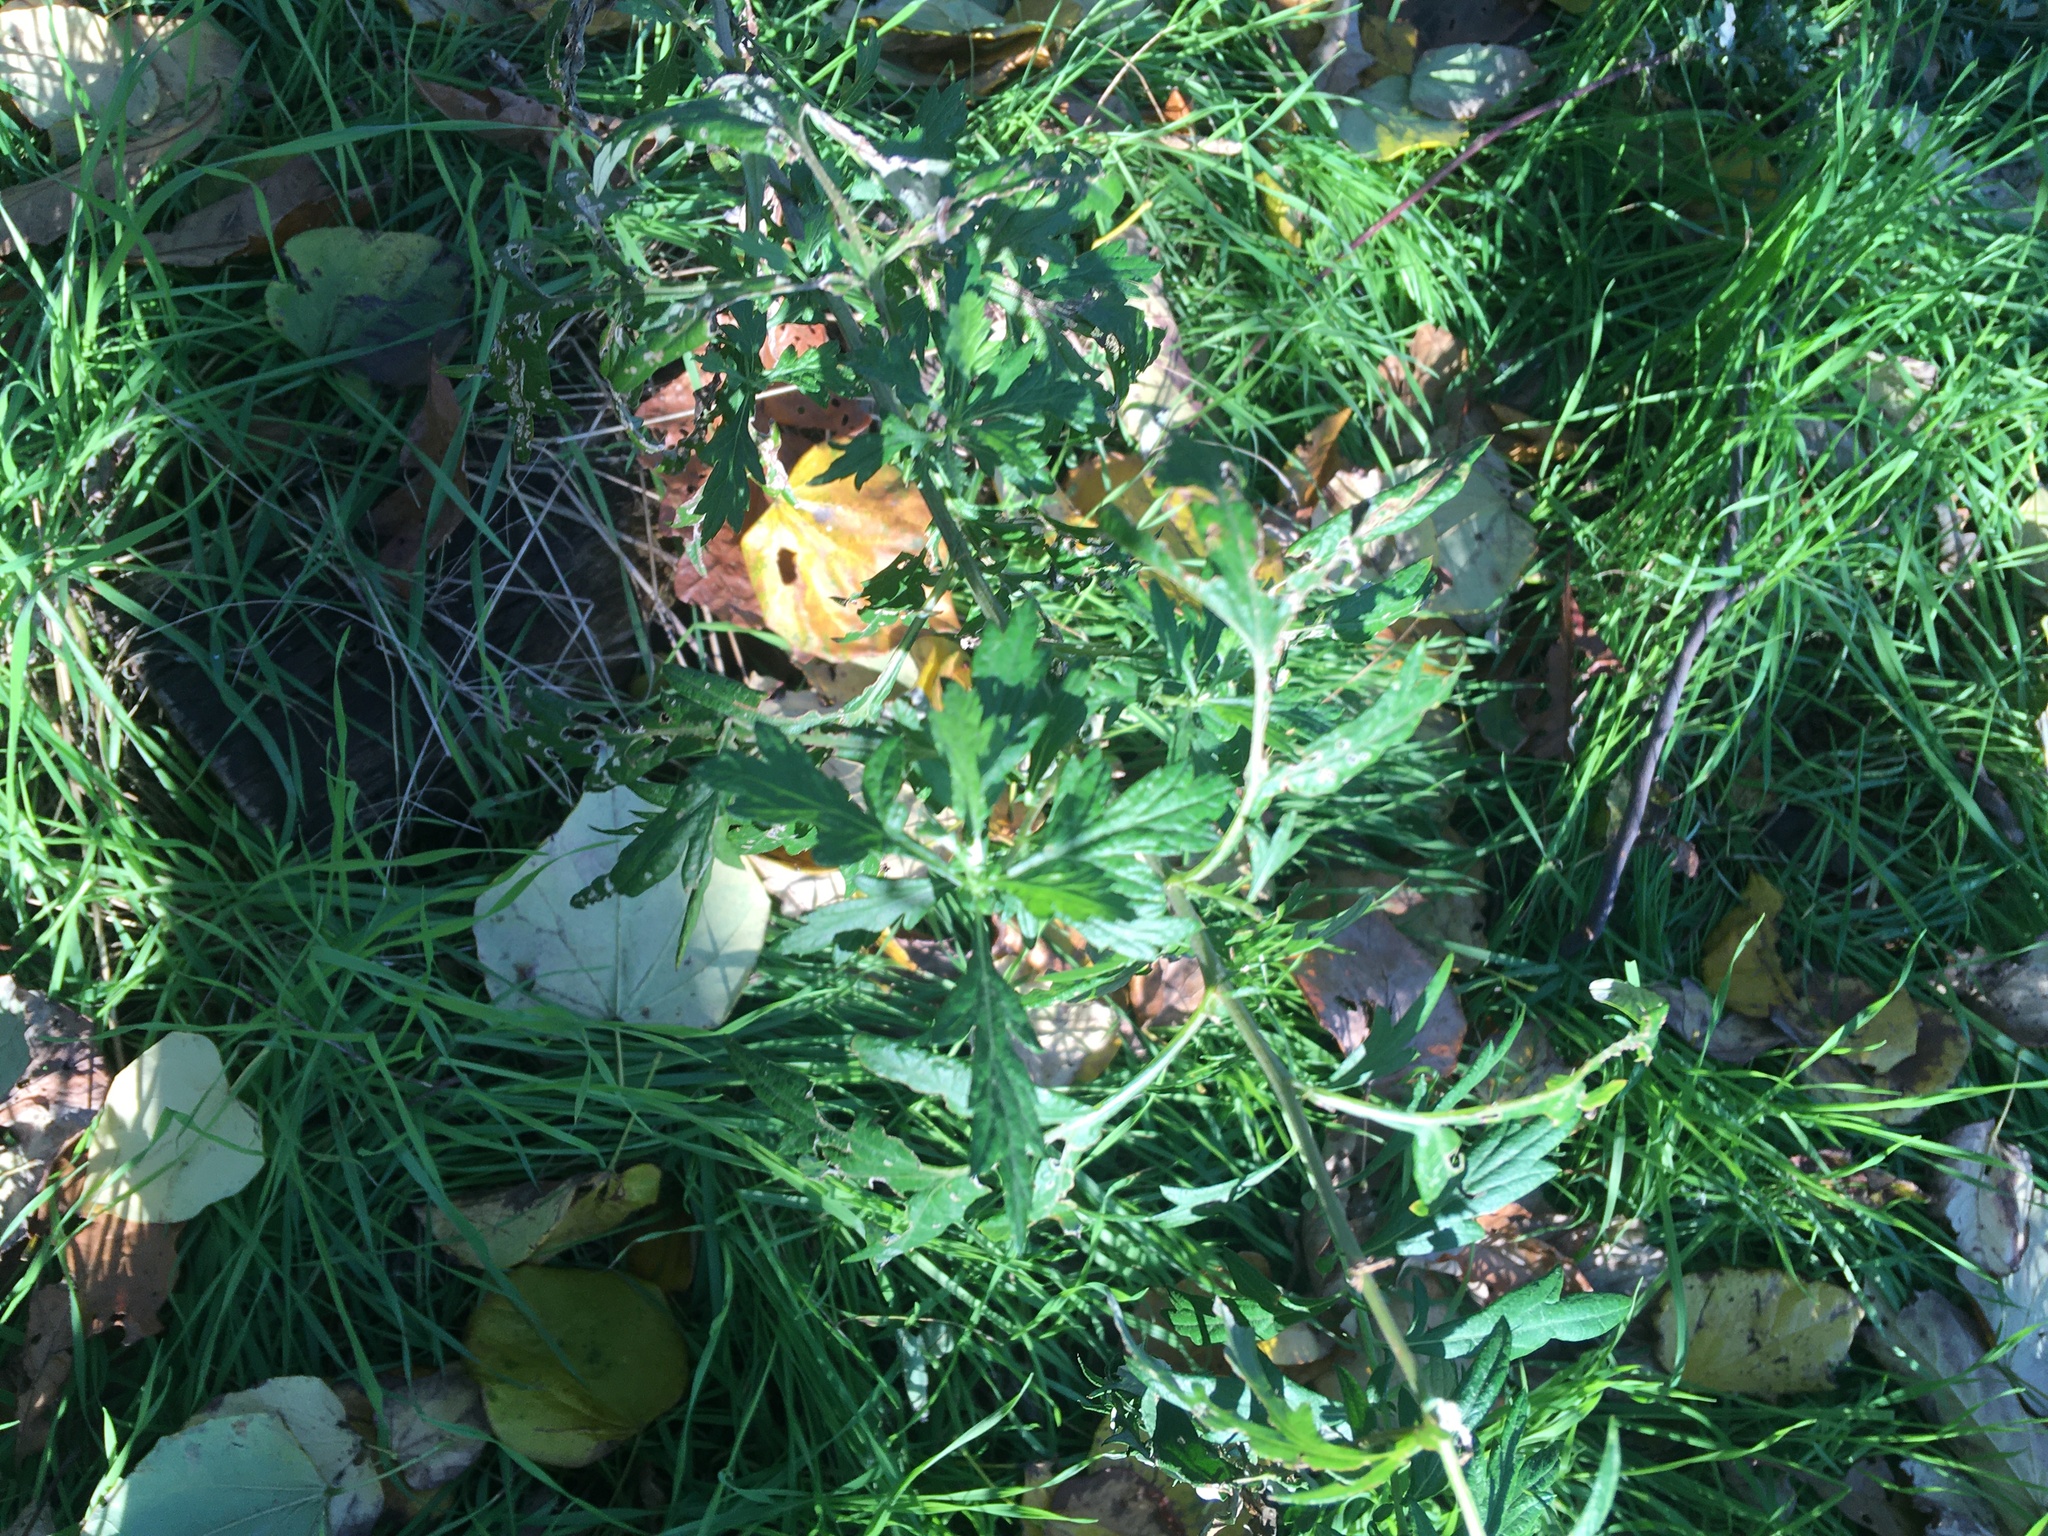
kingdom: Plantae
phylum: Tracheophyta
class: Magnoliopsida
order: Asterales
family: Asteraceae
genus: Artemisia
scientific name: Artemisia vulgaris
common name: Mugwort
